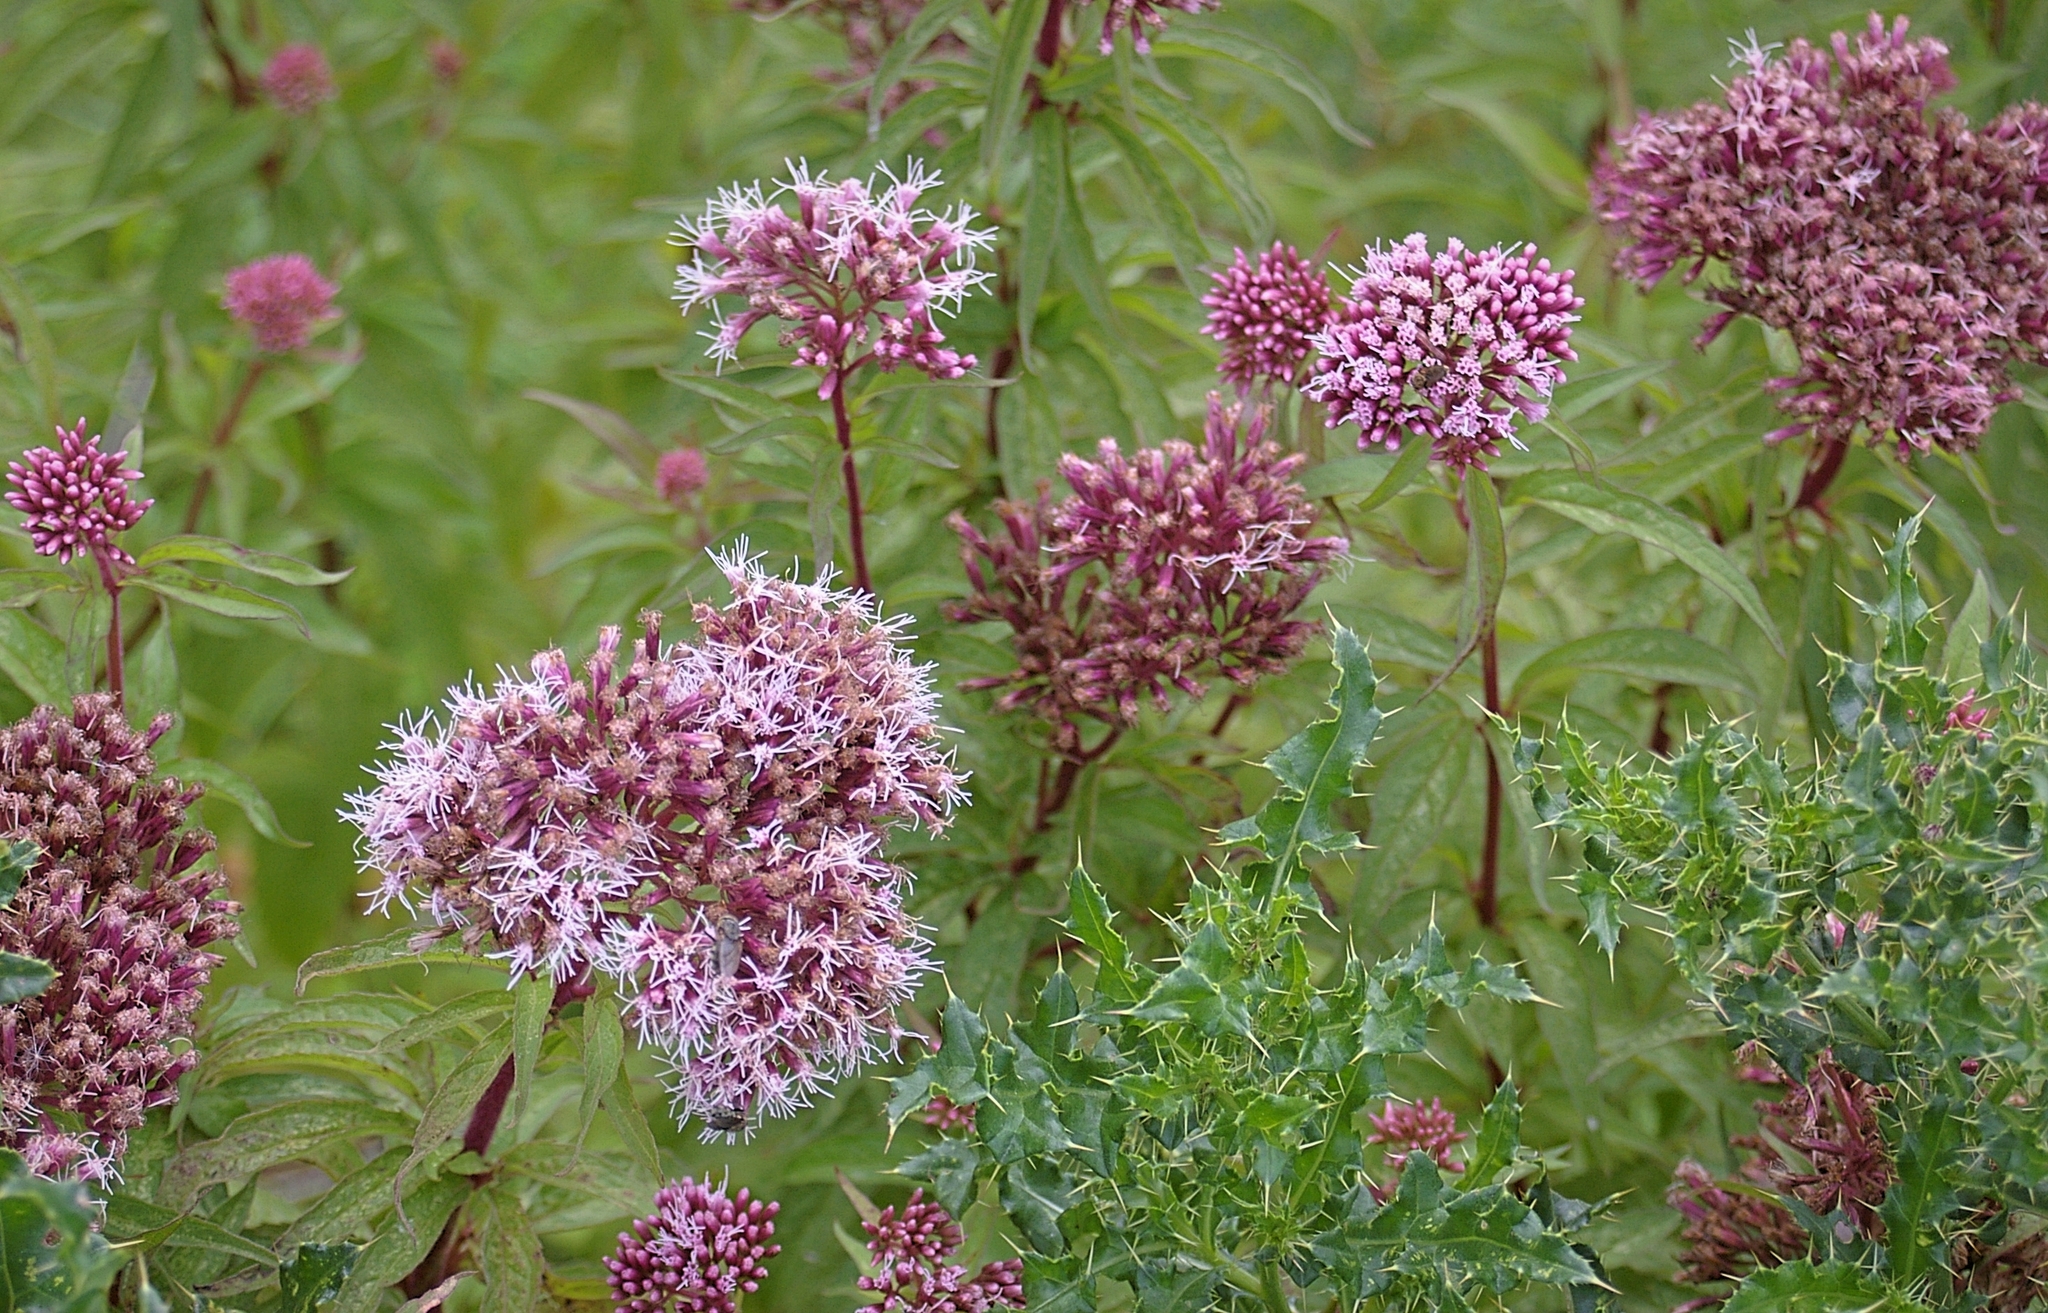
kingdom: Plantae
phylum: Tracheophyta
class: Magnoliopsida
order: Asterales
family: Asteraceae
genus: Eupatorium
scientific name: Eupatorium cannabinum
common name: Hemp-agrimony
